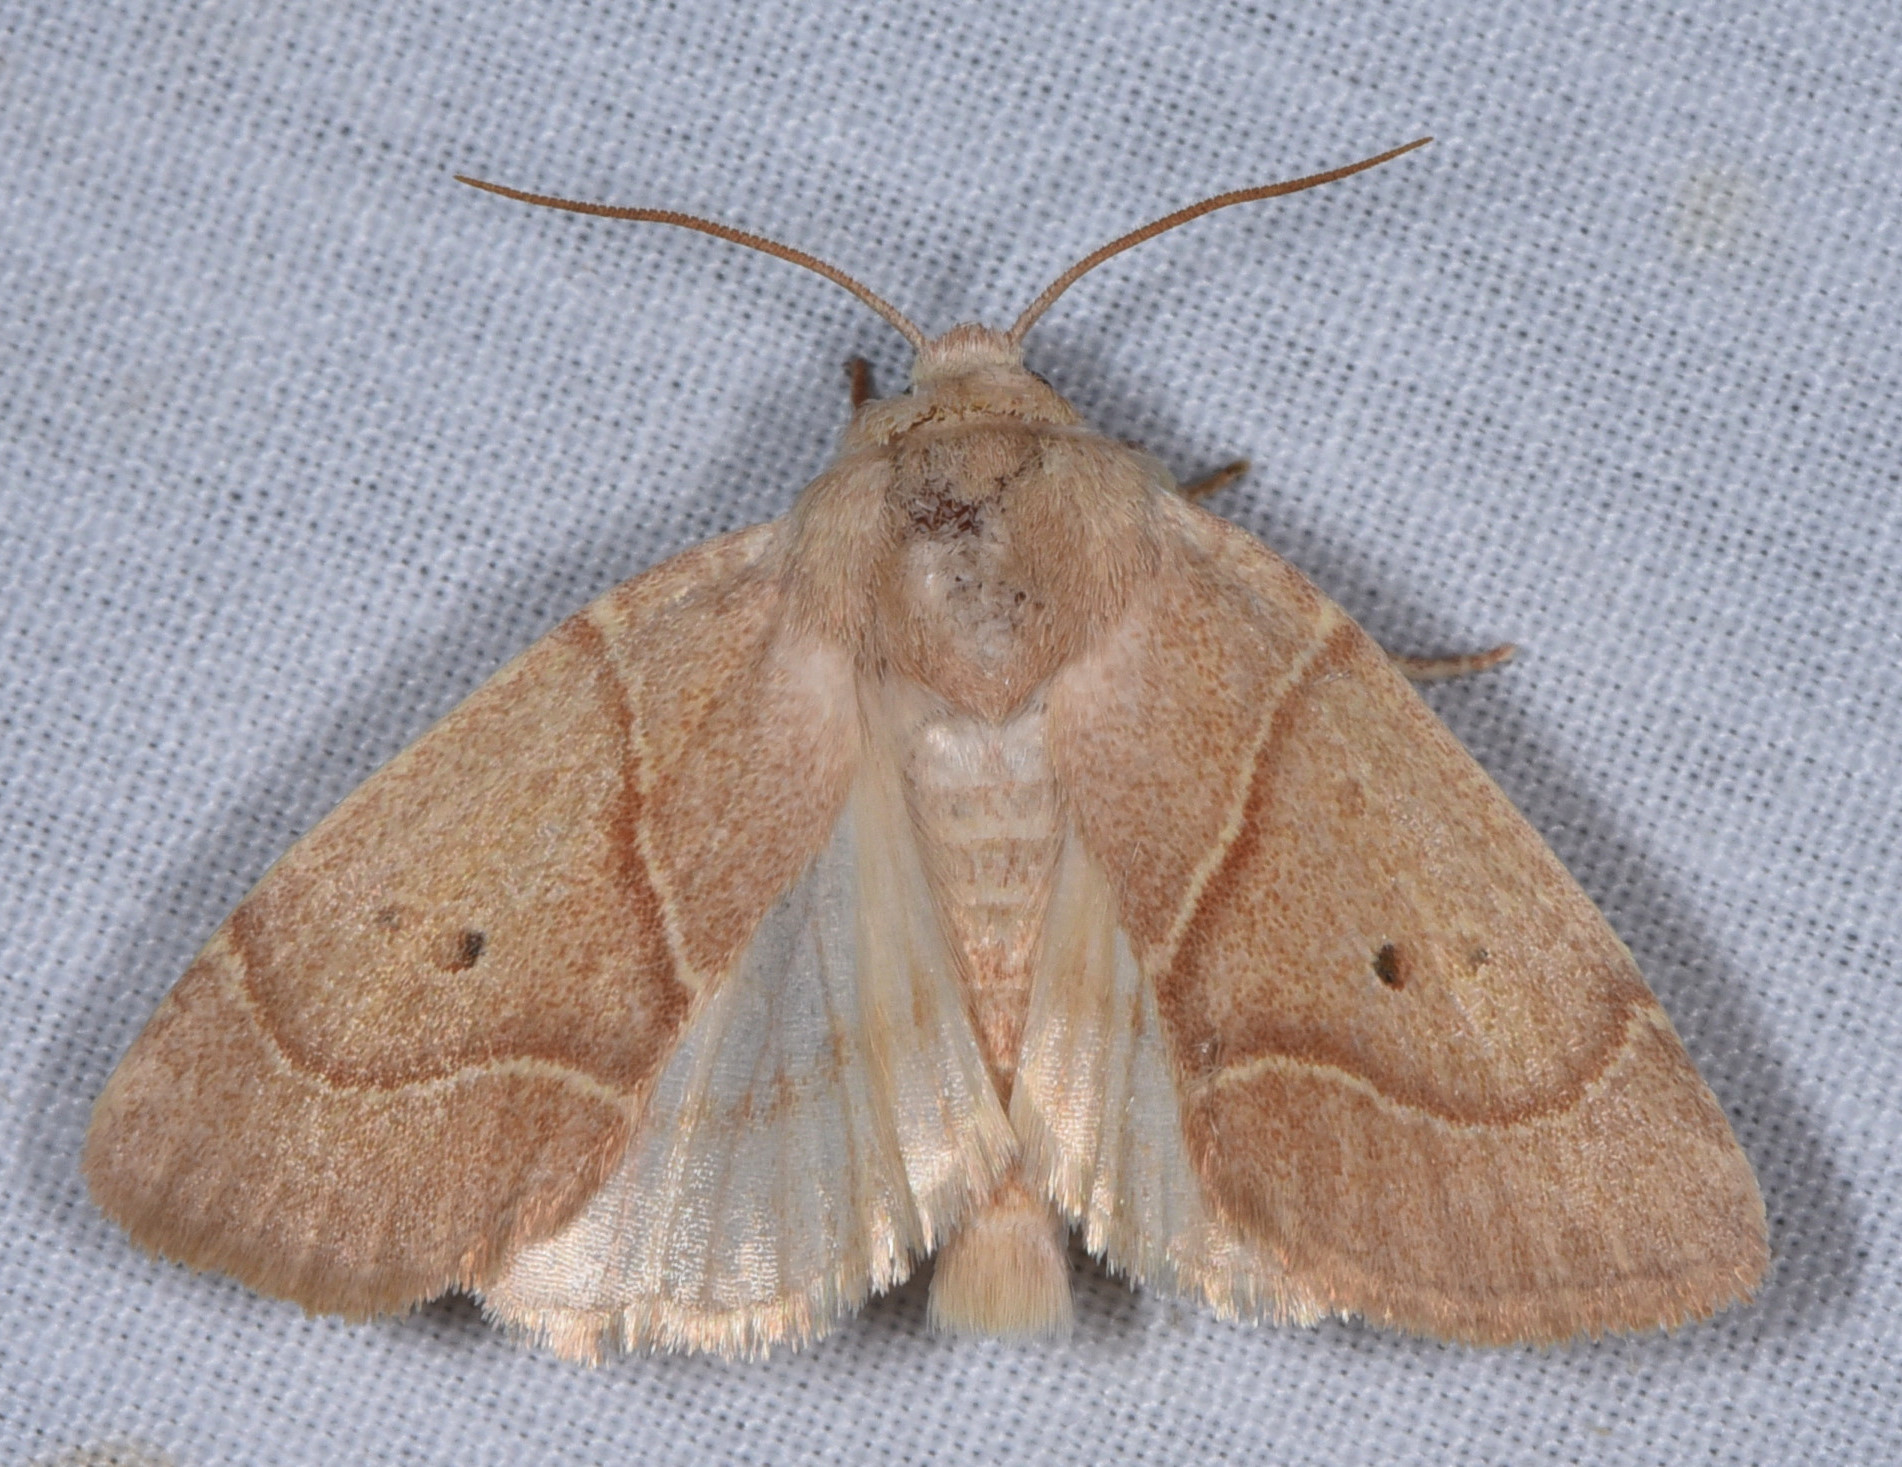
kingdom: Animalia
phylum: Arthropoda
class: Insecta
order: Lepidoptera
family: Noctuidae
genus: Cosmia
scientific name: Cosmia calami
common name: American dun-bar moth
